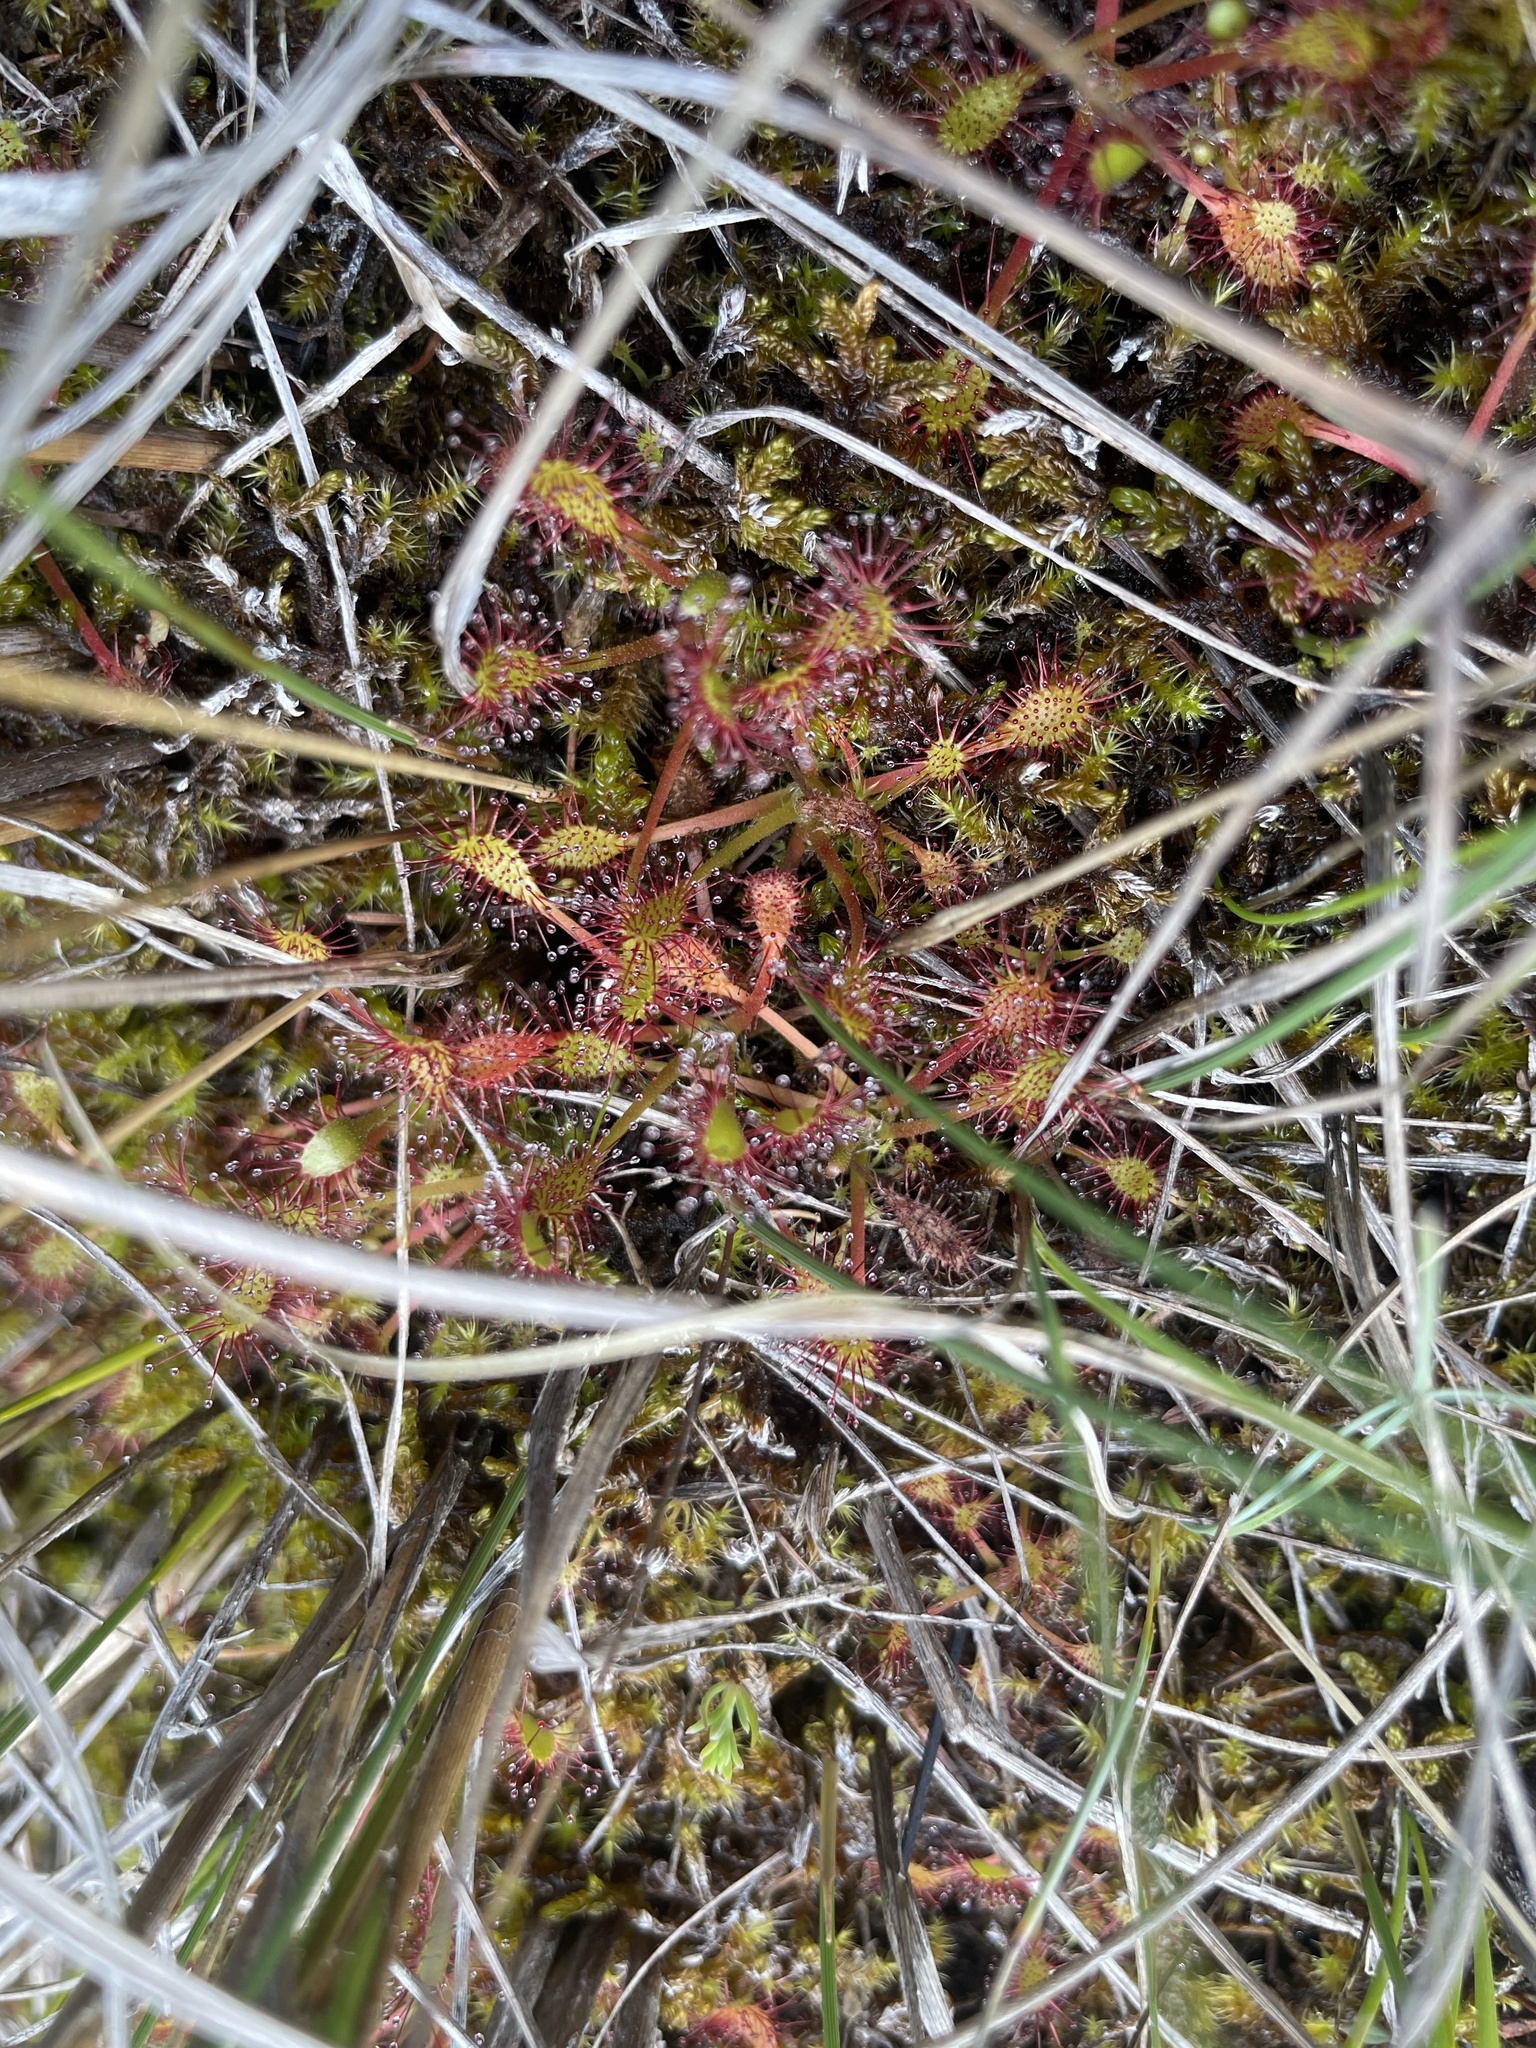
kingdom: Plantae
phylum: Tracheophyta
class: Magnoliopsida
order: Caryophyllales
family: Droseraceae
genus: Drosera
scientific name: Drosera anglica
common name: Great sundew
